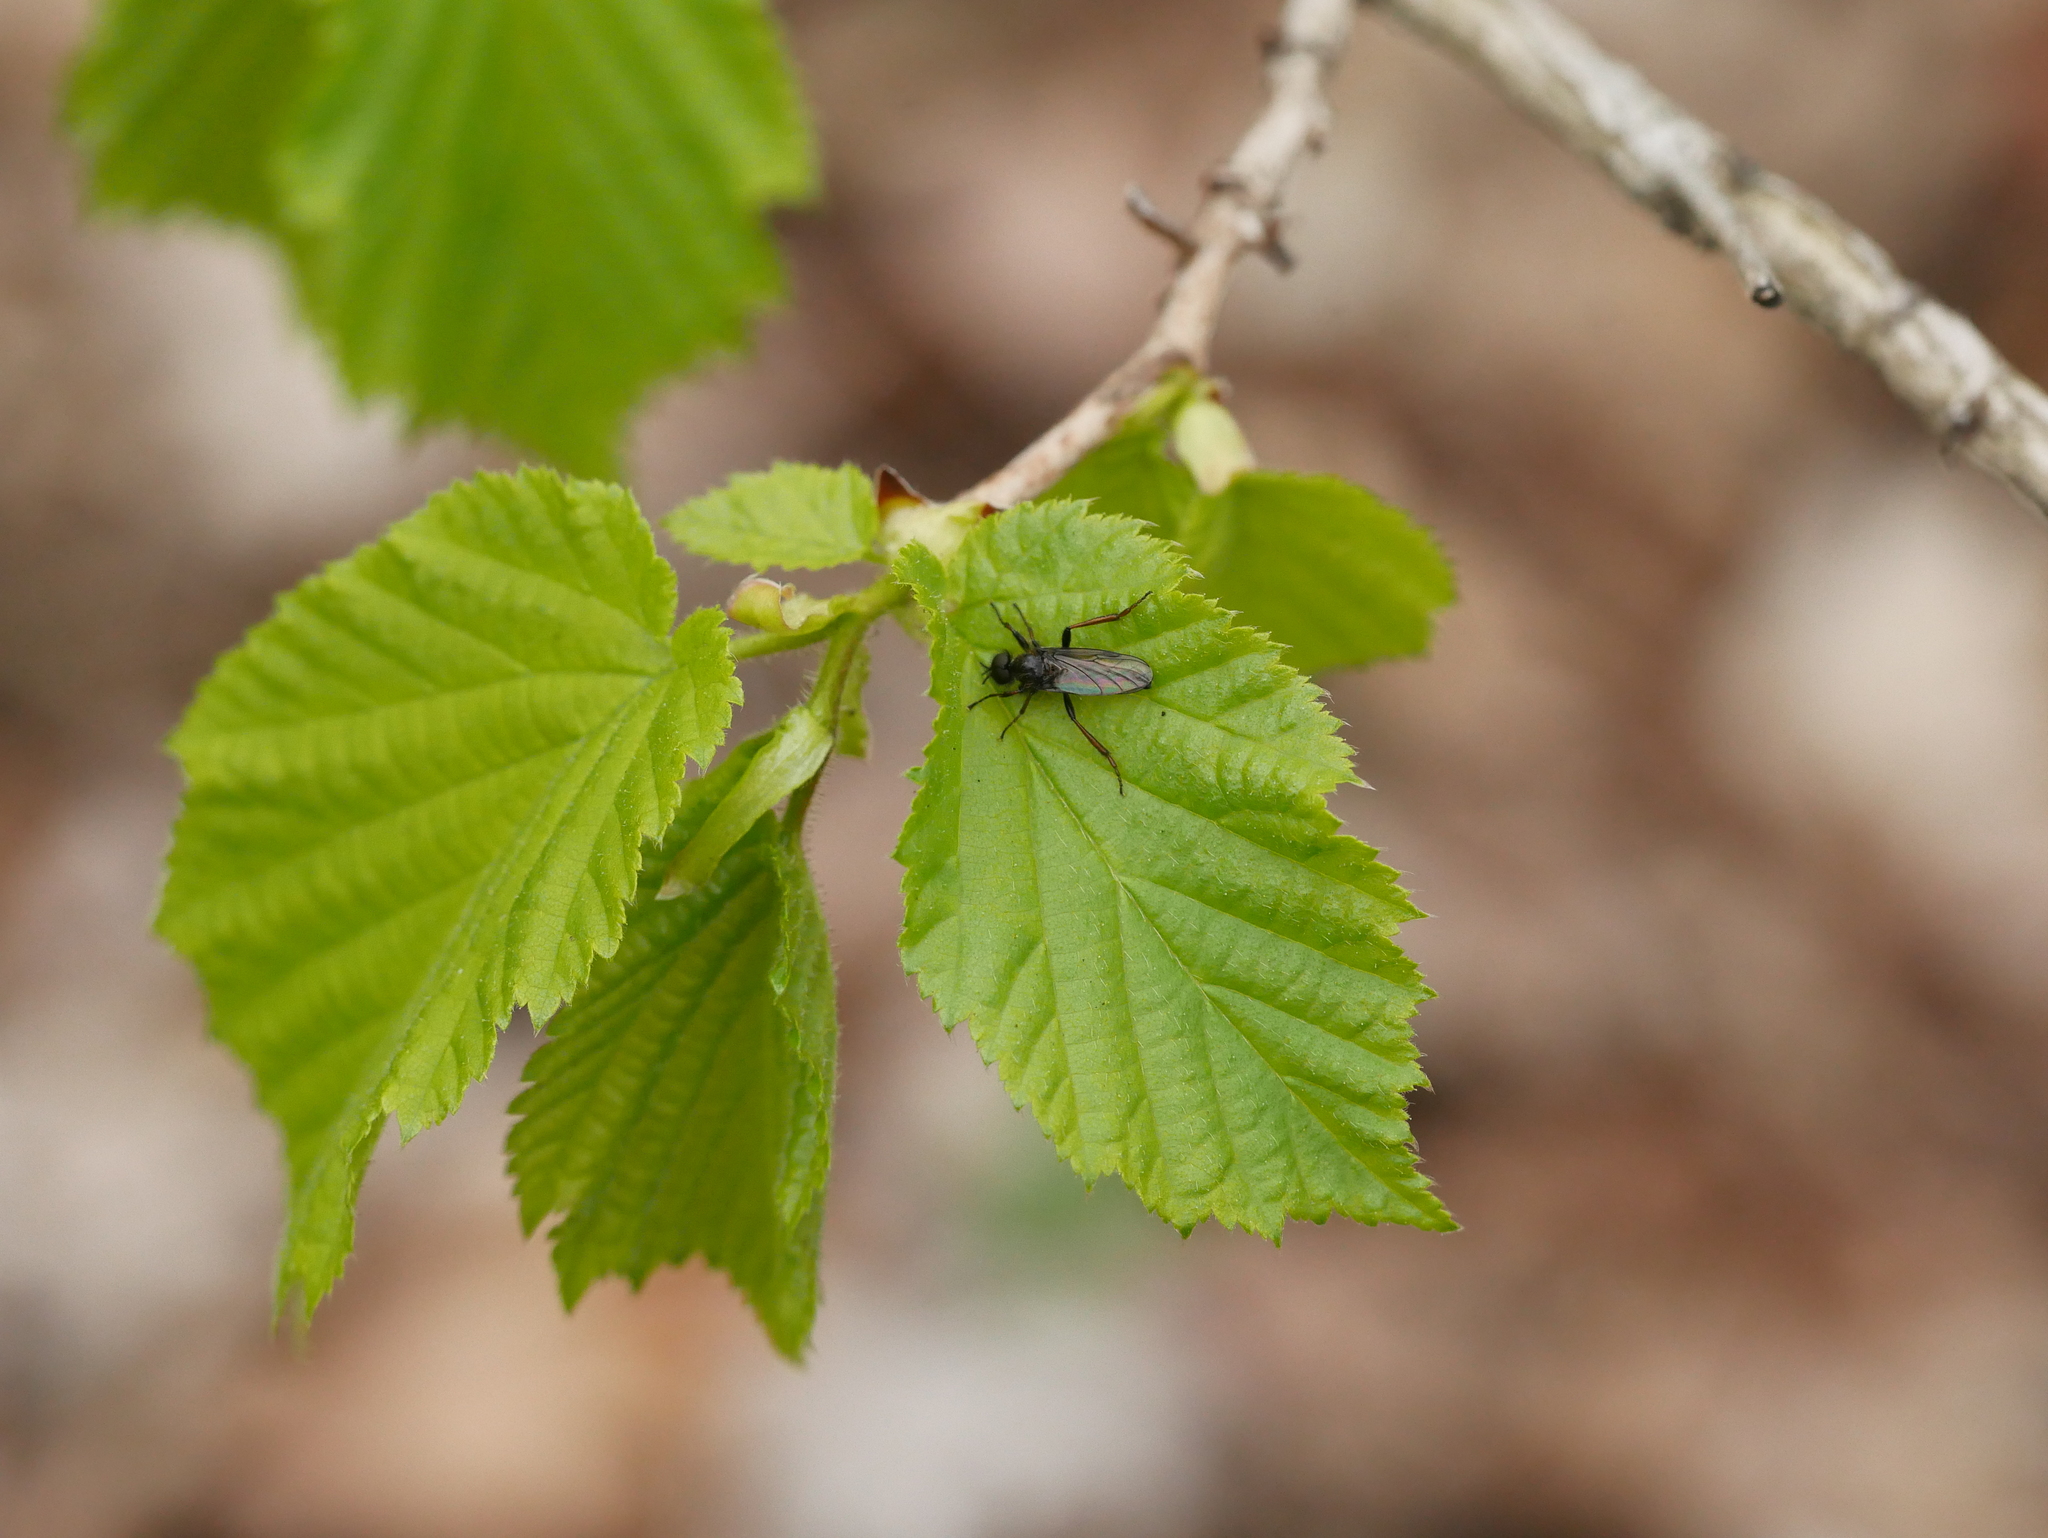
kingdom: Plantae
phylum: Tracheophyta
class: Magnoliopsida
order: Fagales
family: Betulaceae
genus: Corylus
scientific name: Corylus avellana
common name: European hazel
